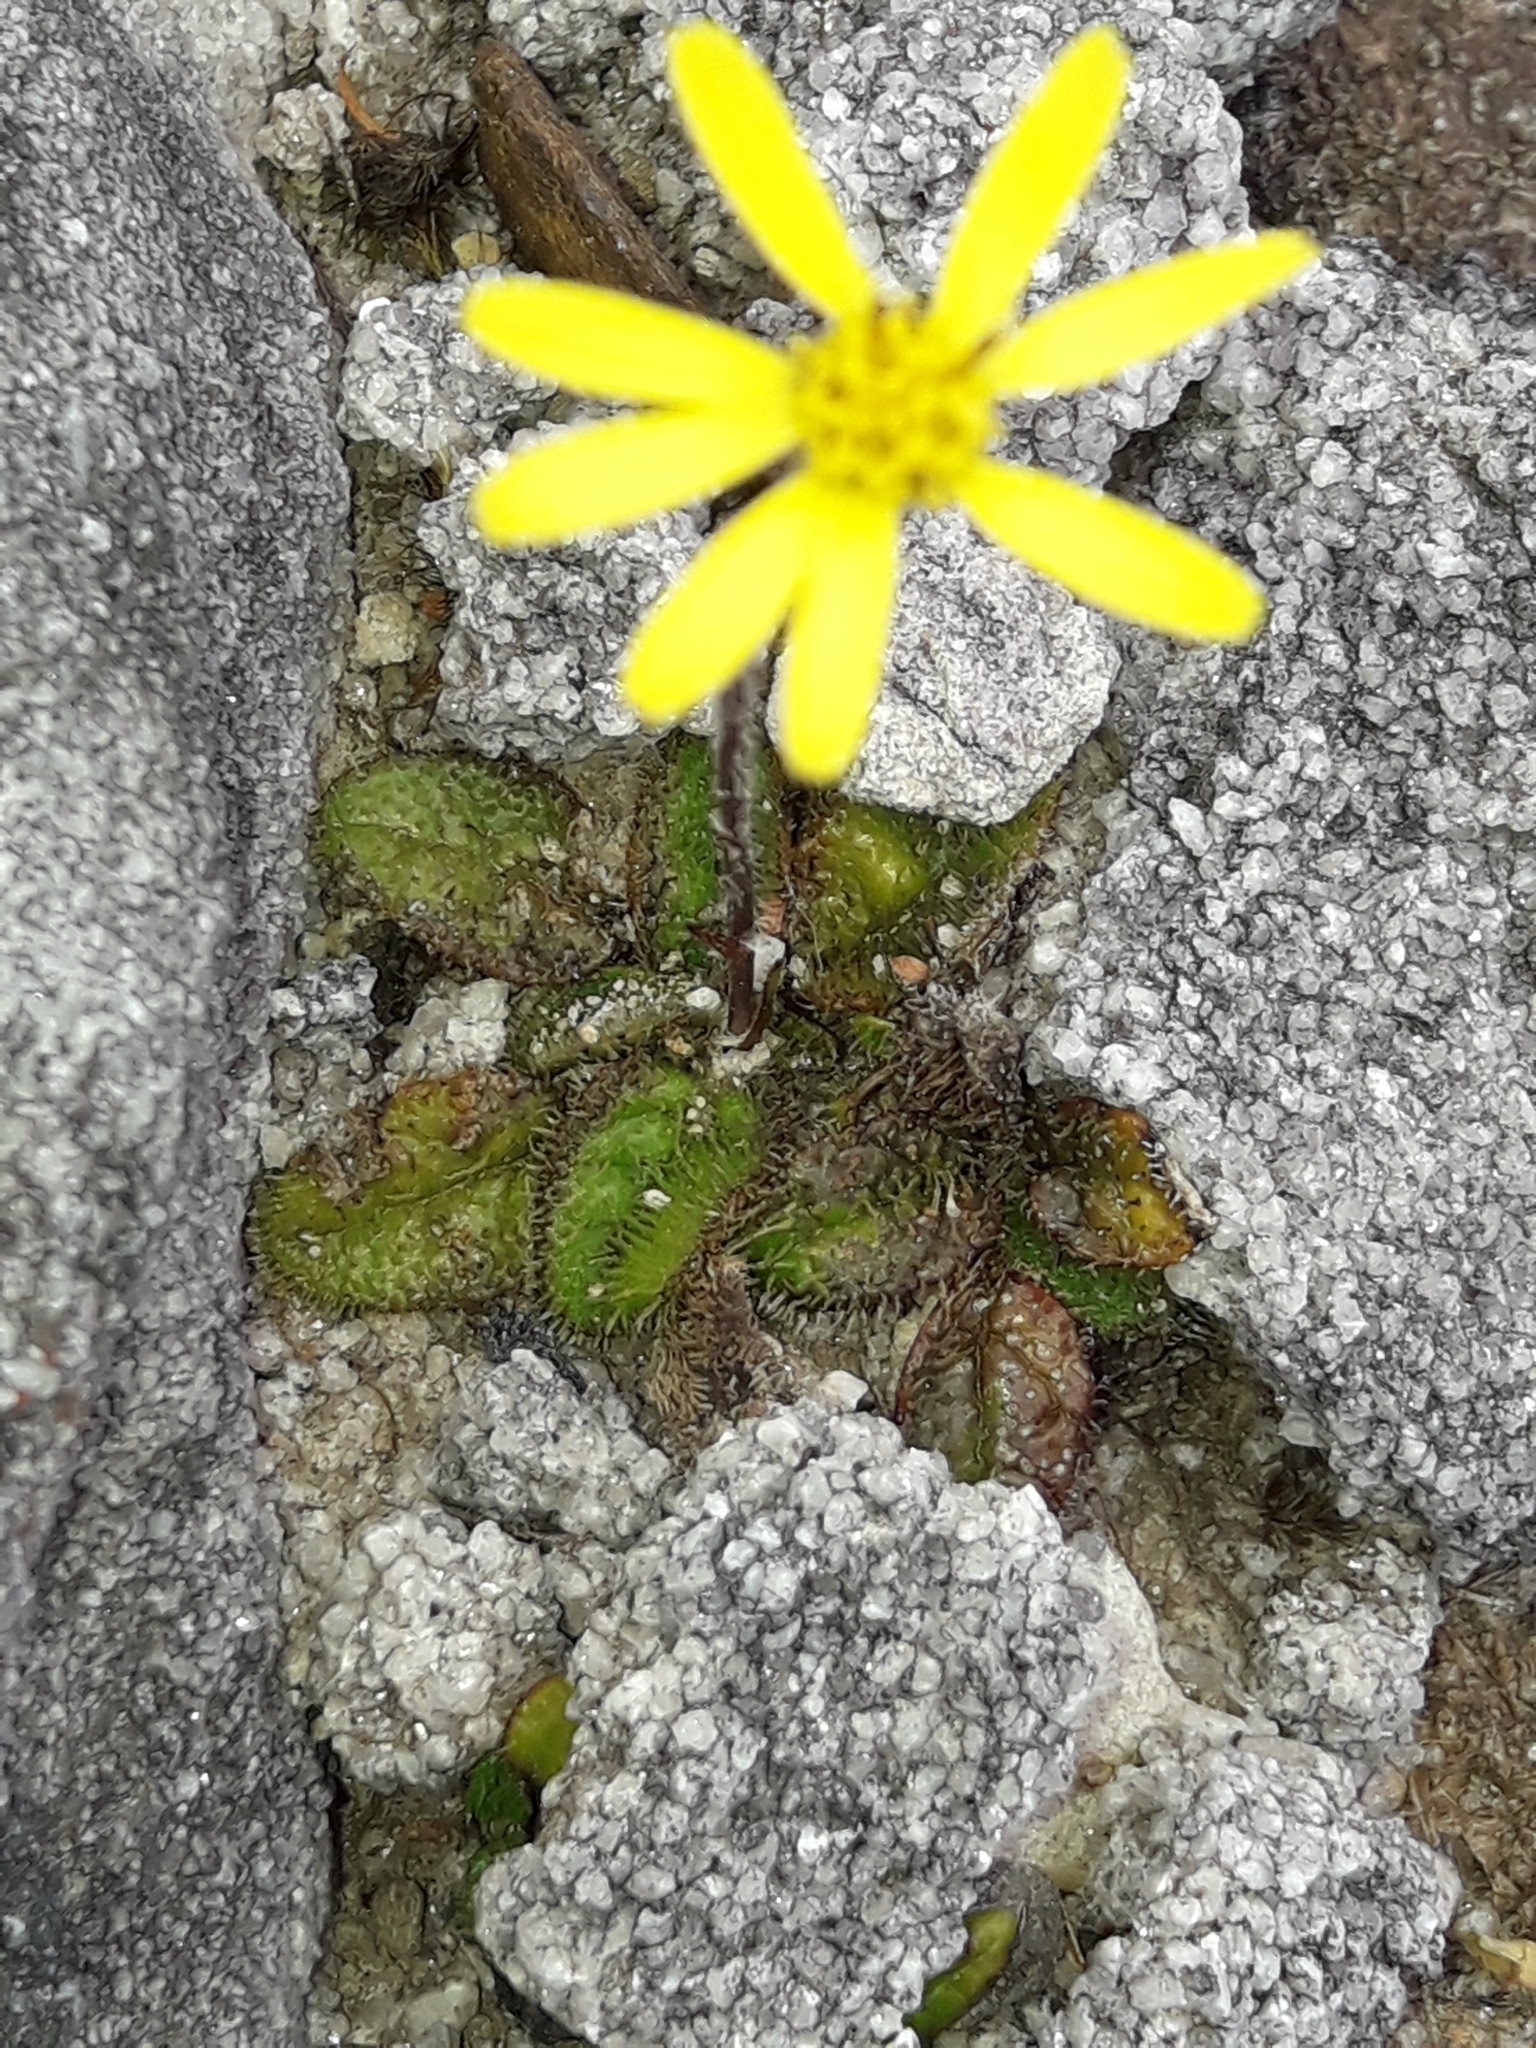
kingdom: Plantae
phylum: Tracheophyta
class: Magnoliopsida
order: Asterales
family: Asteraceae
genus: Brachyglottis
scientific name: Brachyglottis bellidioides
